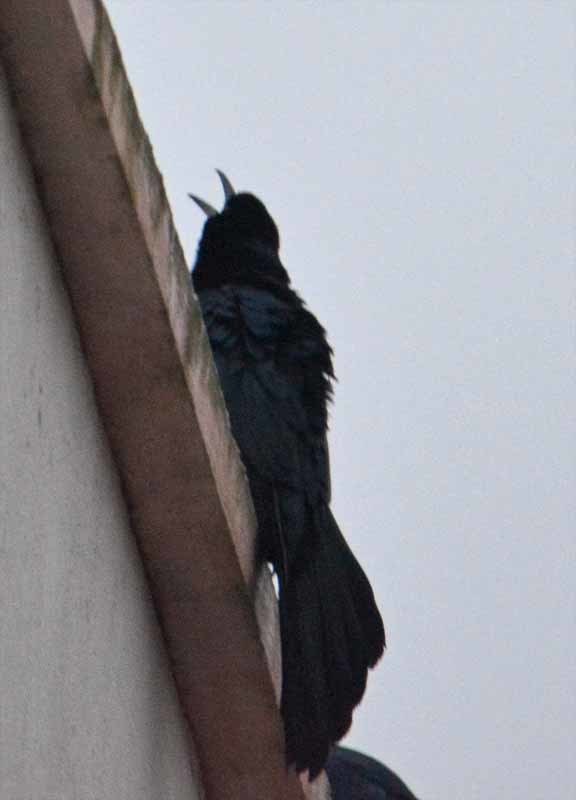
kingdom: Animalia
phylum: Chordata
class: Aves
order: Passeriformes
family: Icteridae
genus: Quiscalus
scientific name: Quiscalus mexicanus
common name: Great-tailed grackle
